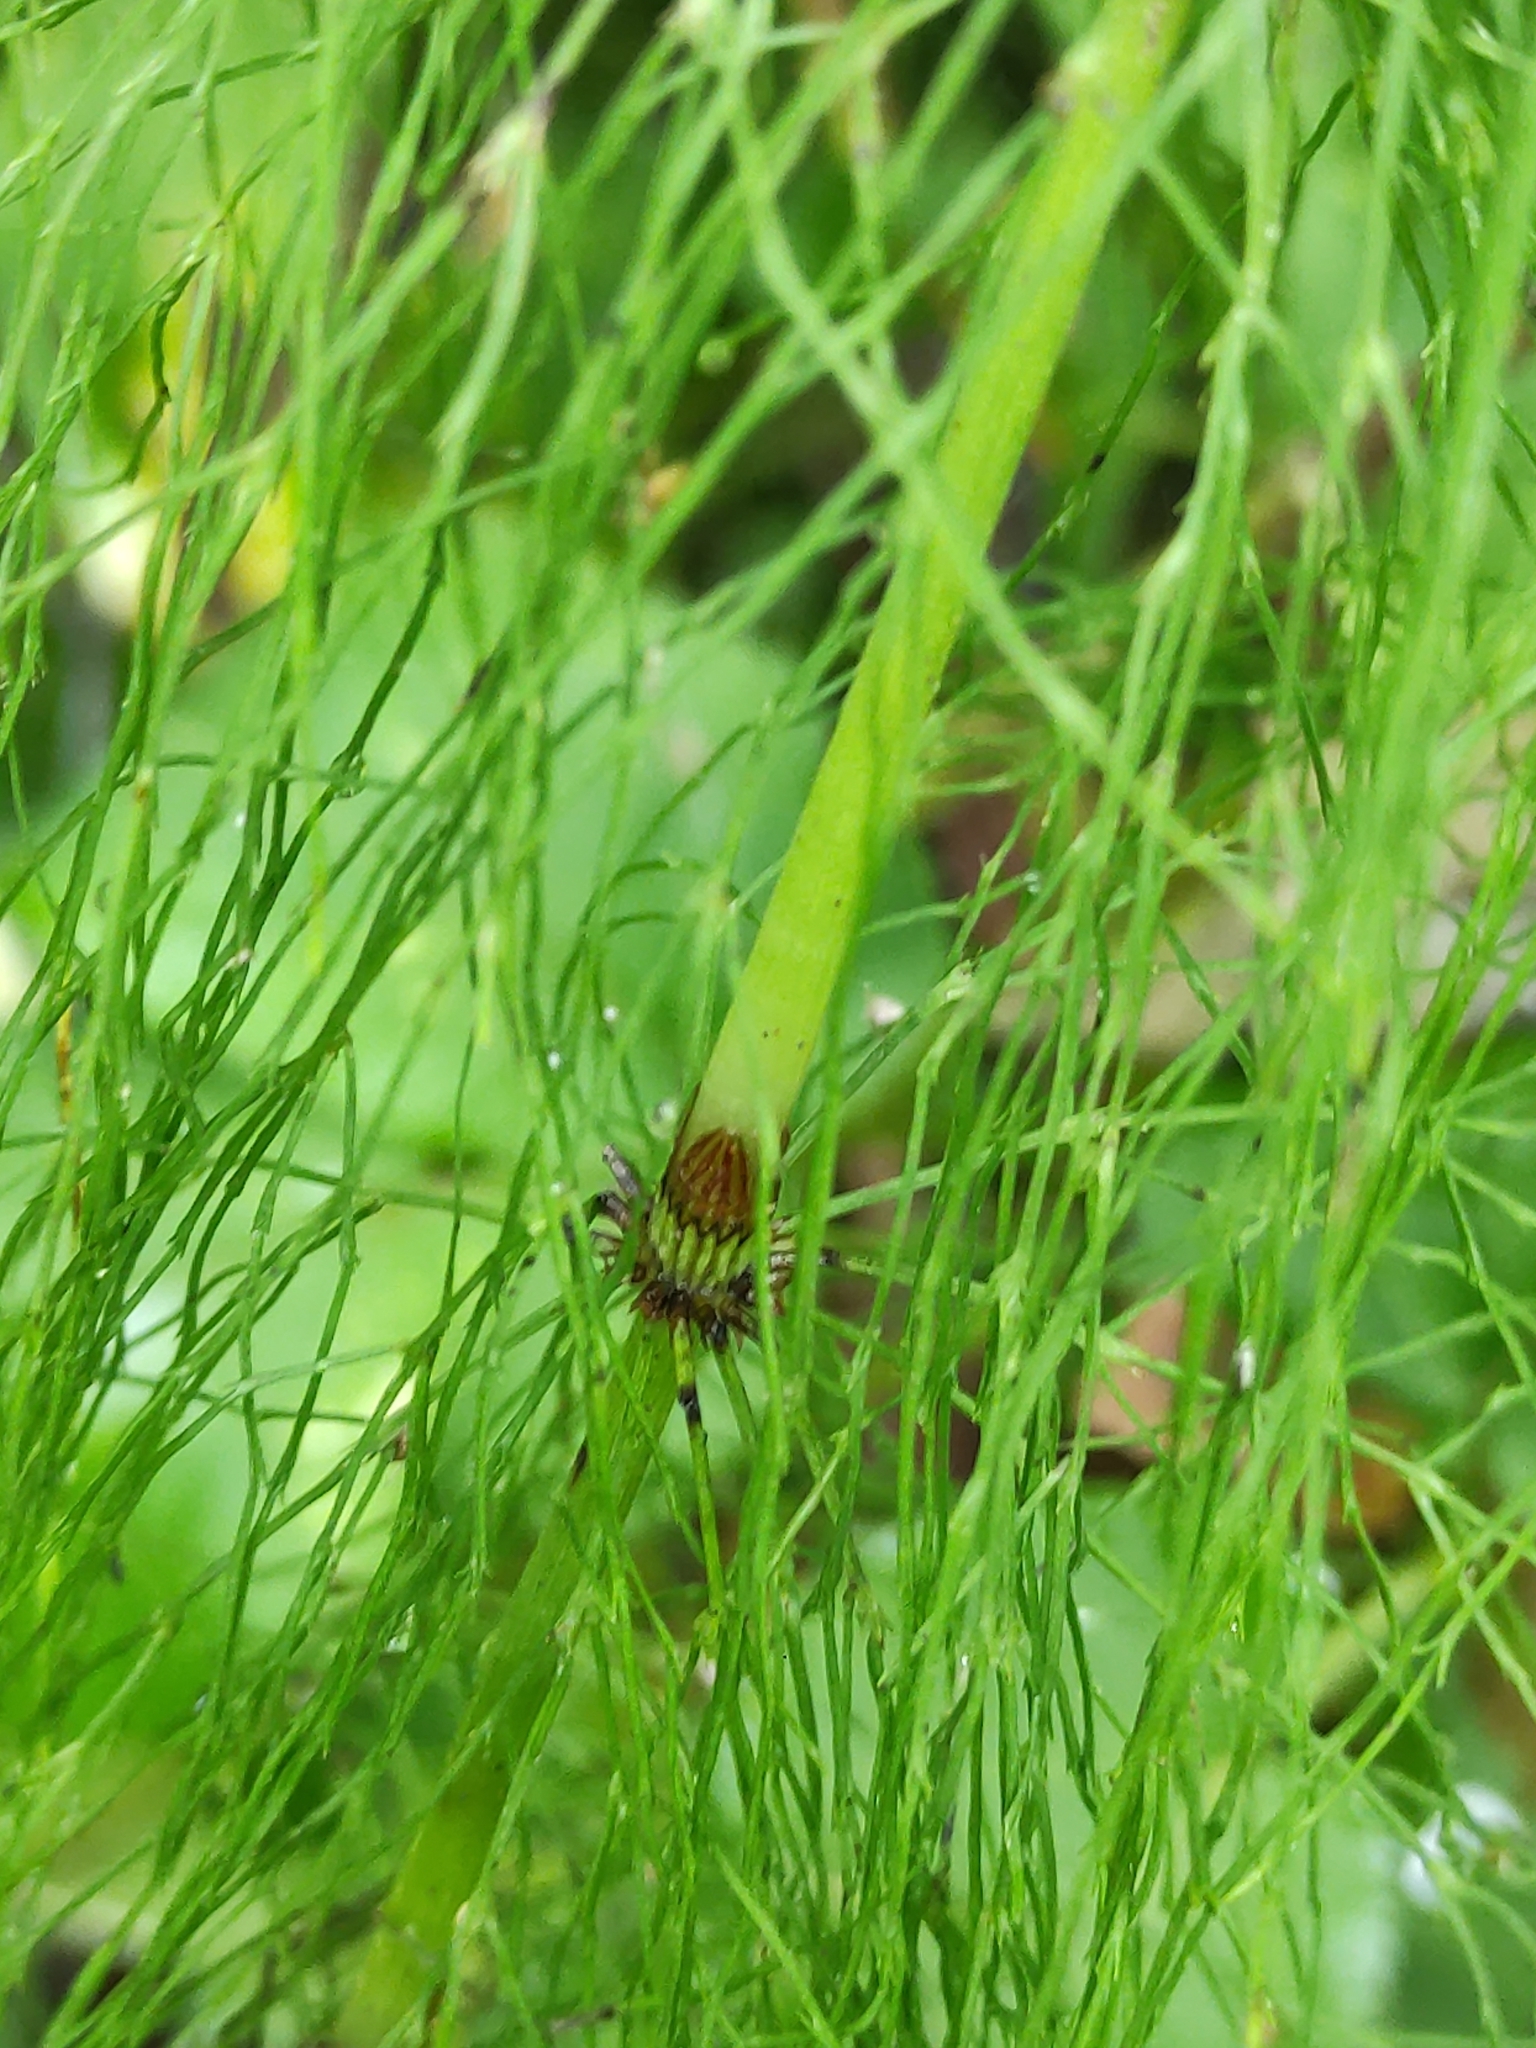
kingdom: Plantae
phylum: Tracheophyta
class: Polypodiopsida
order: Equisetales
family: Equisetaceae
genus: Equisetum
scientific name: Equisetum sylvaticum
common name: Wood horsetail
